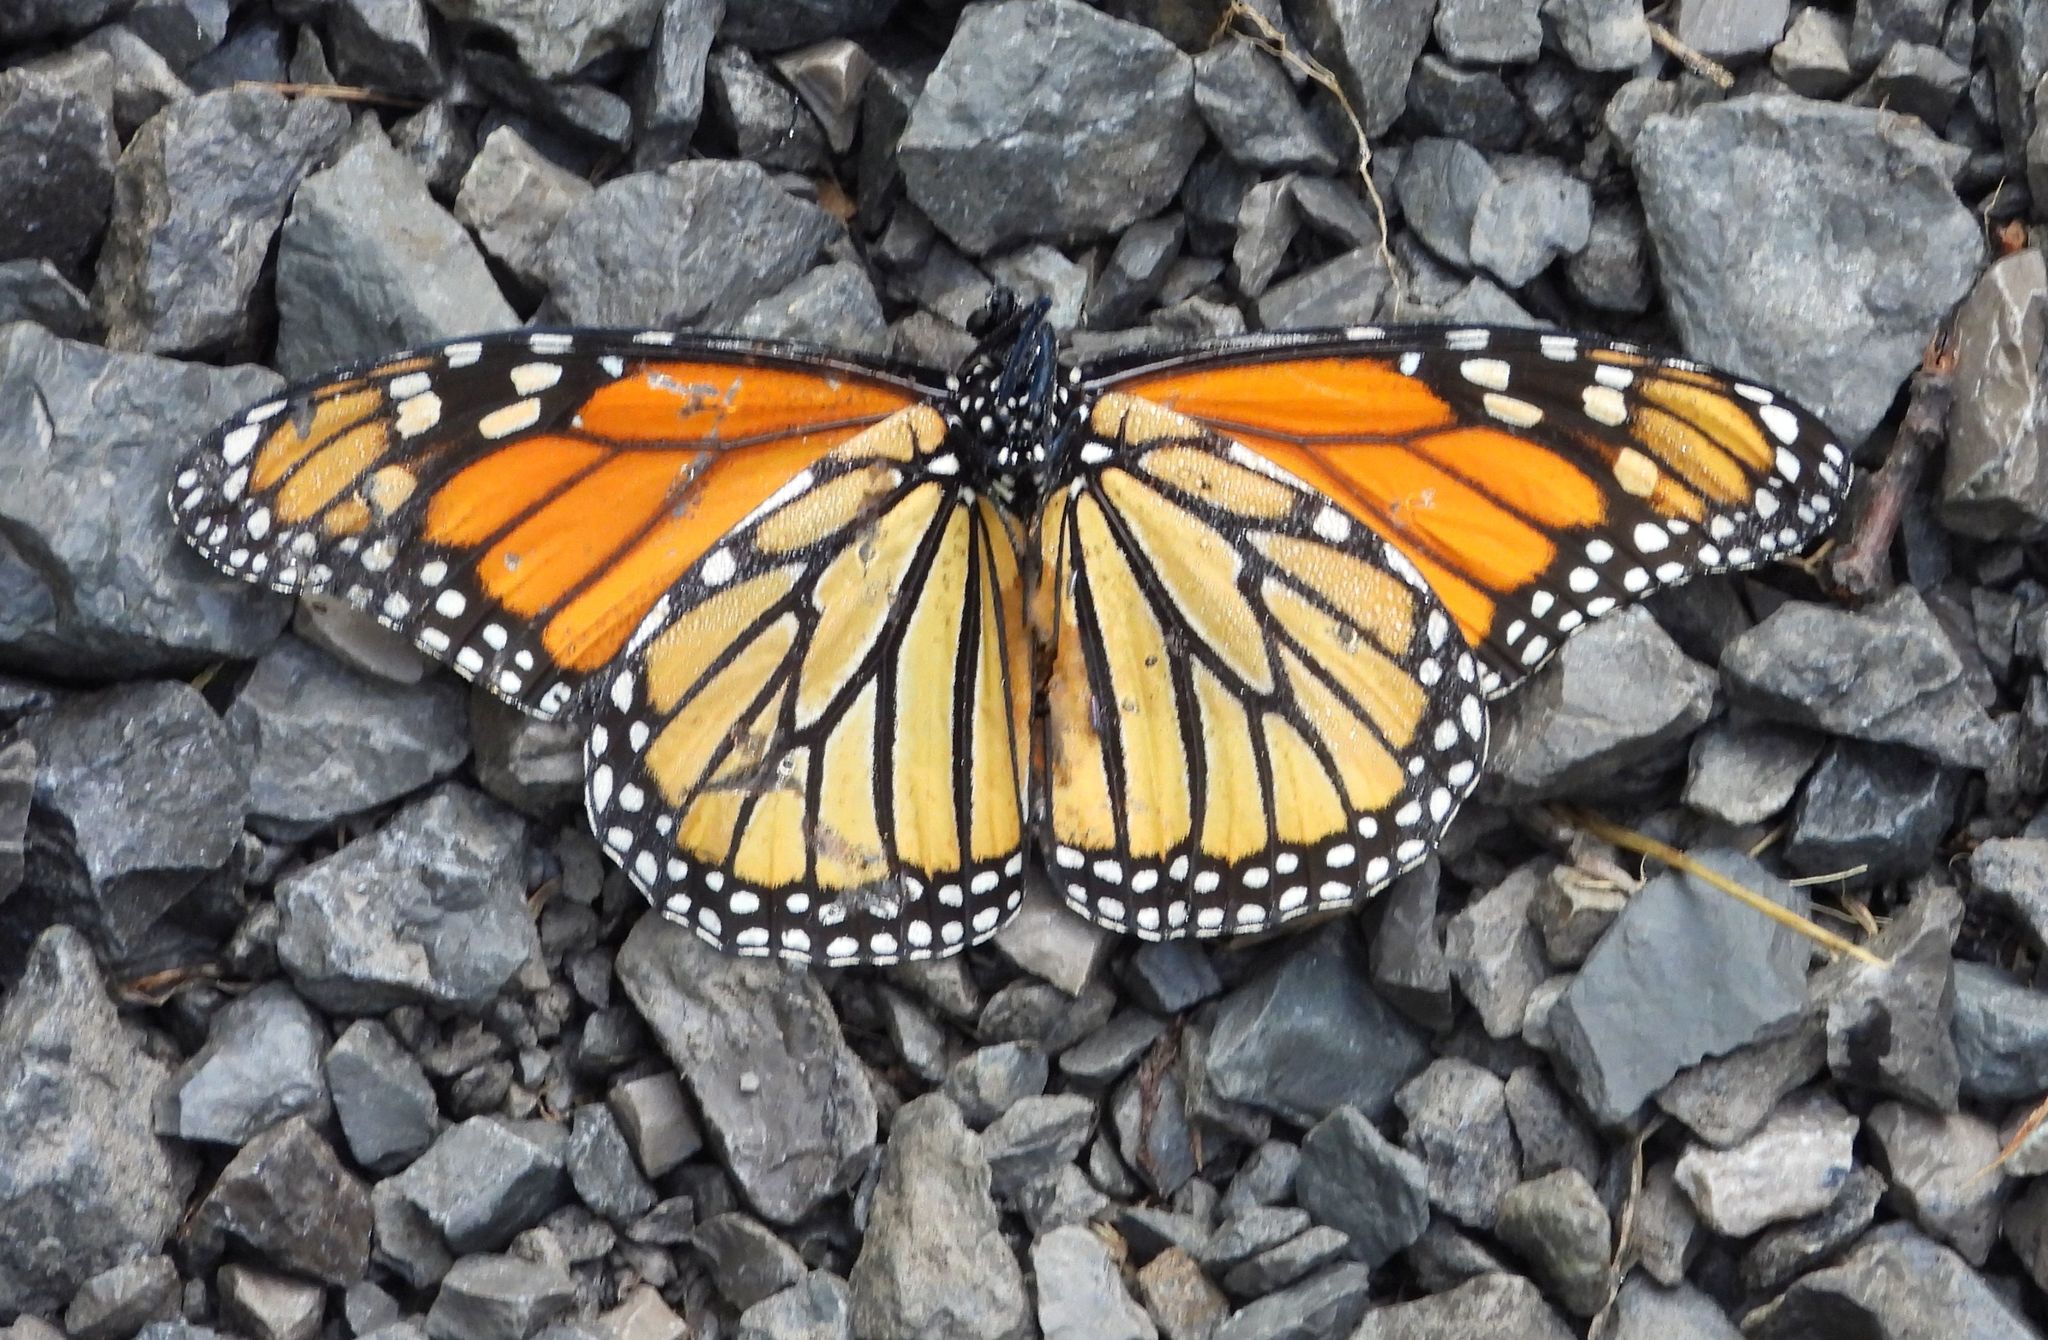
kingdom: Animalia
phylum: Arthropoda
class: Insecta
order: Lepidoptera
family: Nymphalidae
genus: Danaus
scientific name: Danaus plexippus
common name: Monarch
